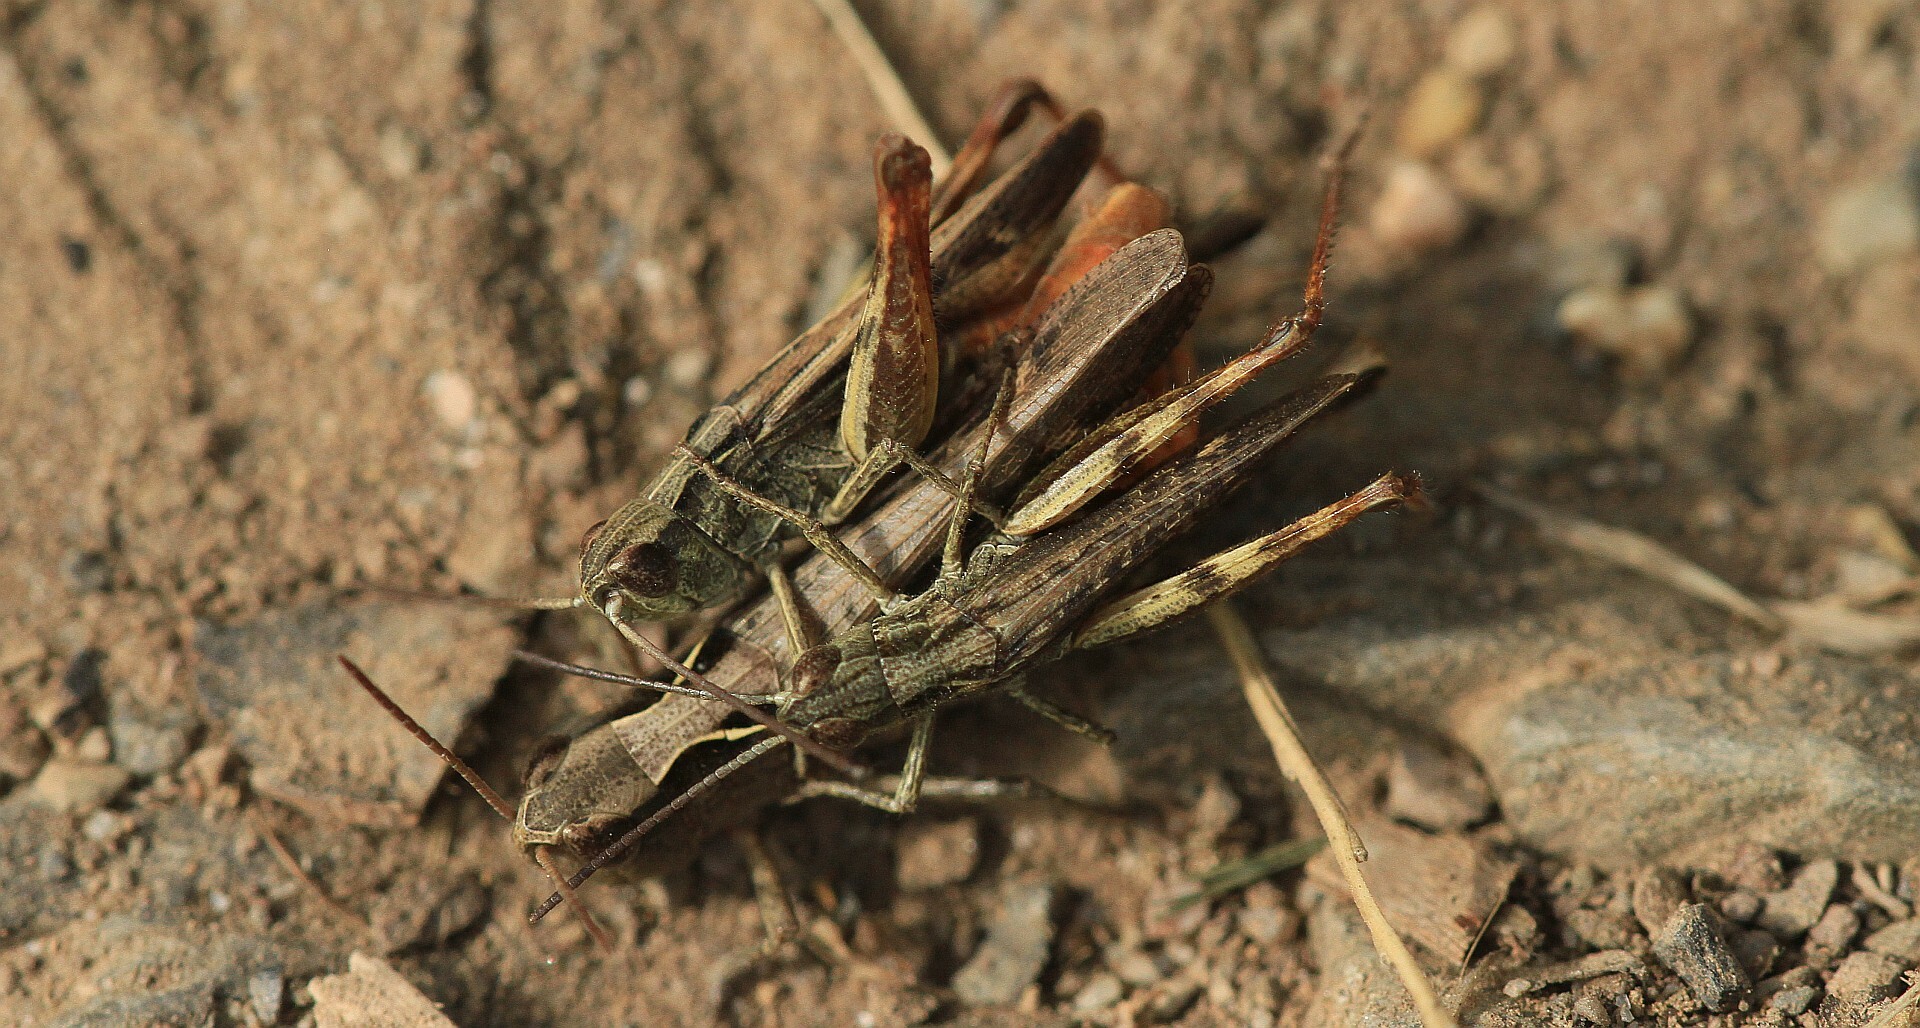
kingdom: Animalia
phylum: Arthropoda
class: Insecta
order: Orthoptera
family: Acrididae
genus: Chorthippus
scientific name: Chorthippus vagans
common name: Heath grasshopper
